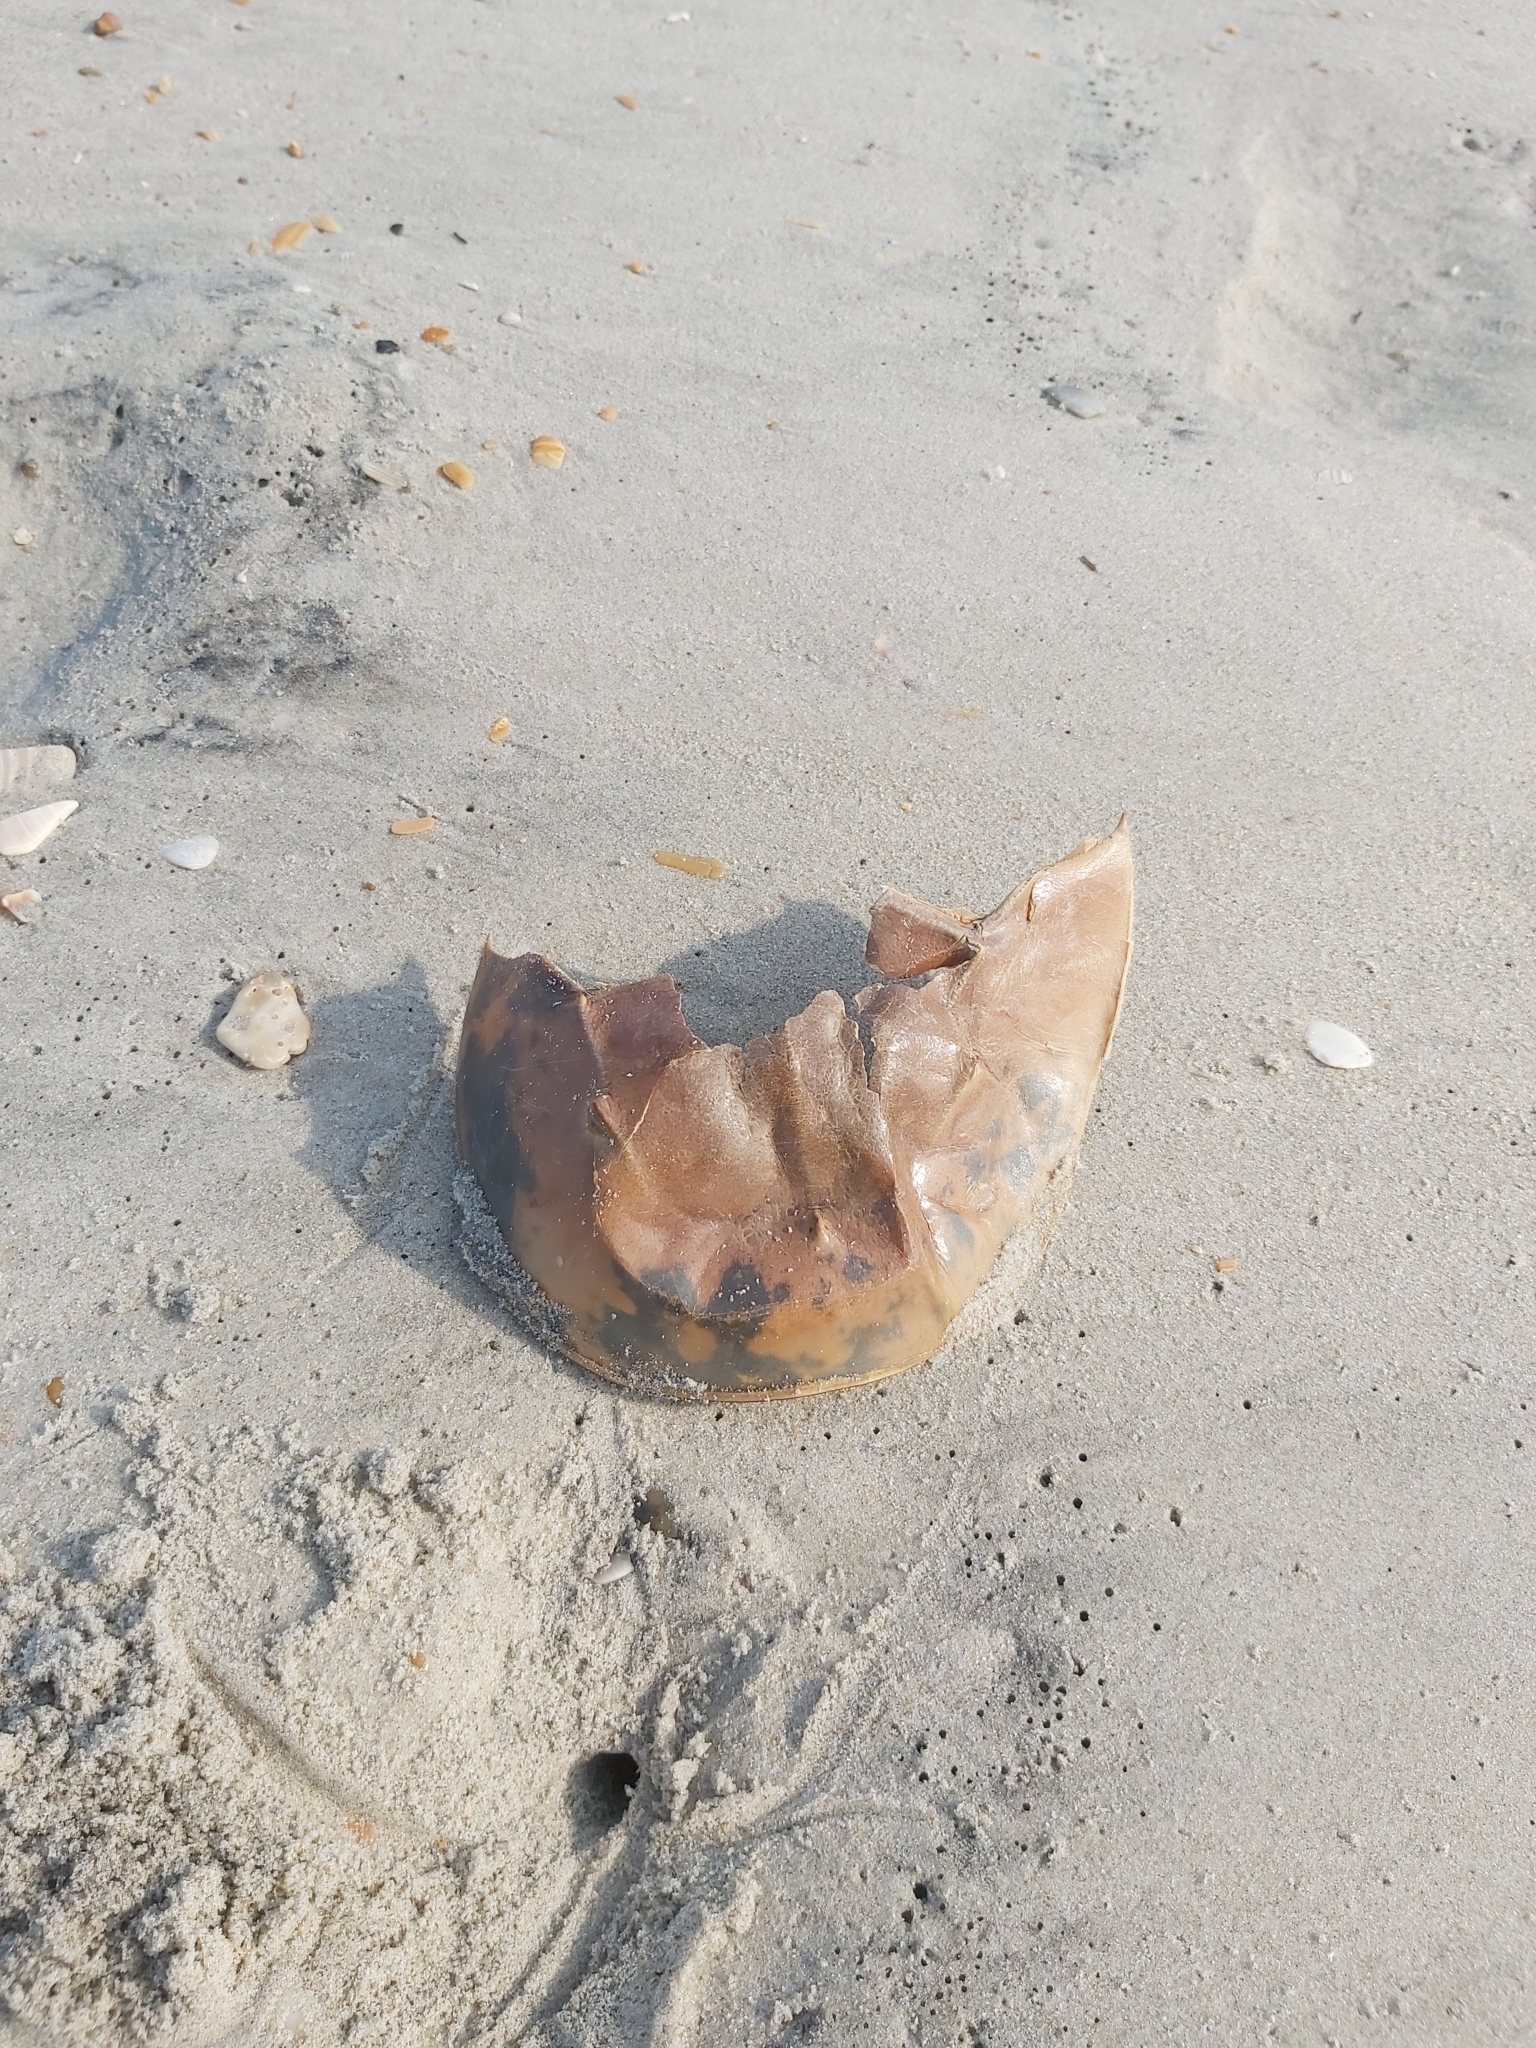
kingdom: Animalia
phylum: Arthropoda
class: Merostomata
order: Xiphosurida
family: Limulidae
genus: Limulus
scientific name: Limulus polyphemus
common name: Horseshoe crab
